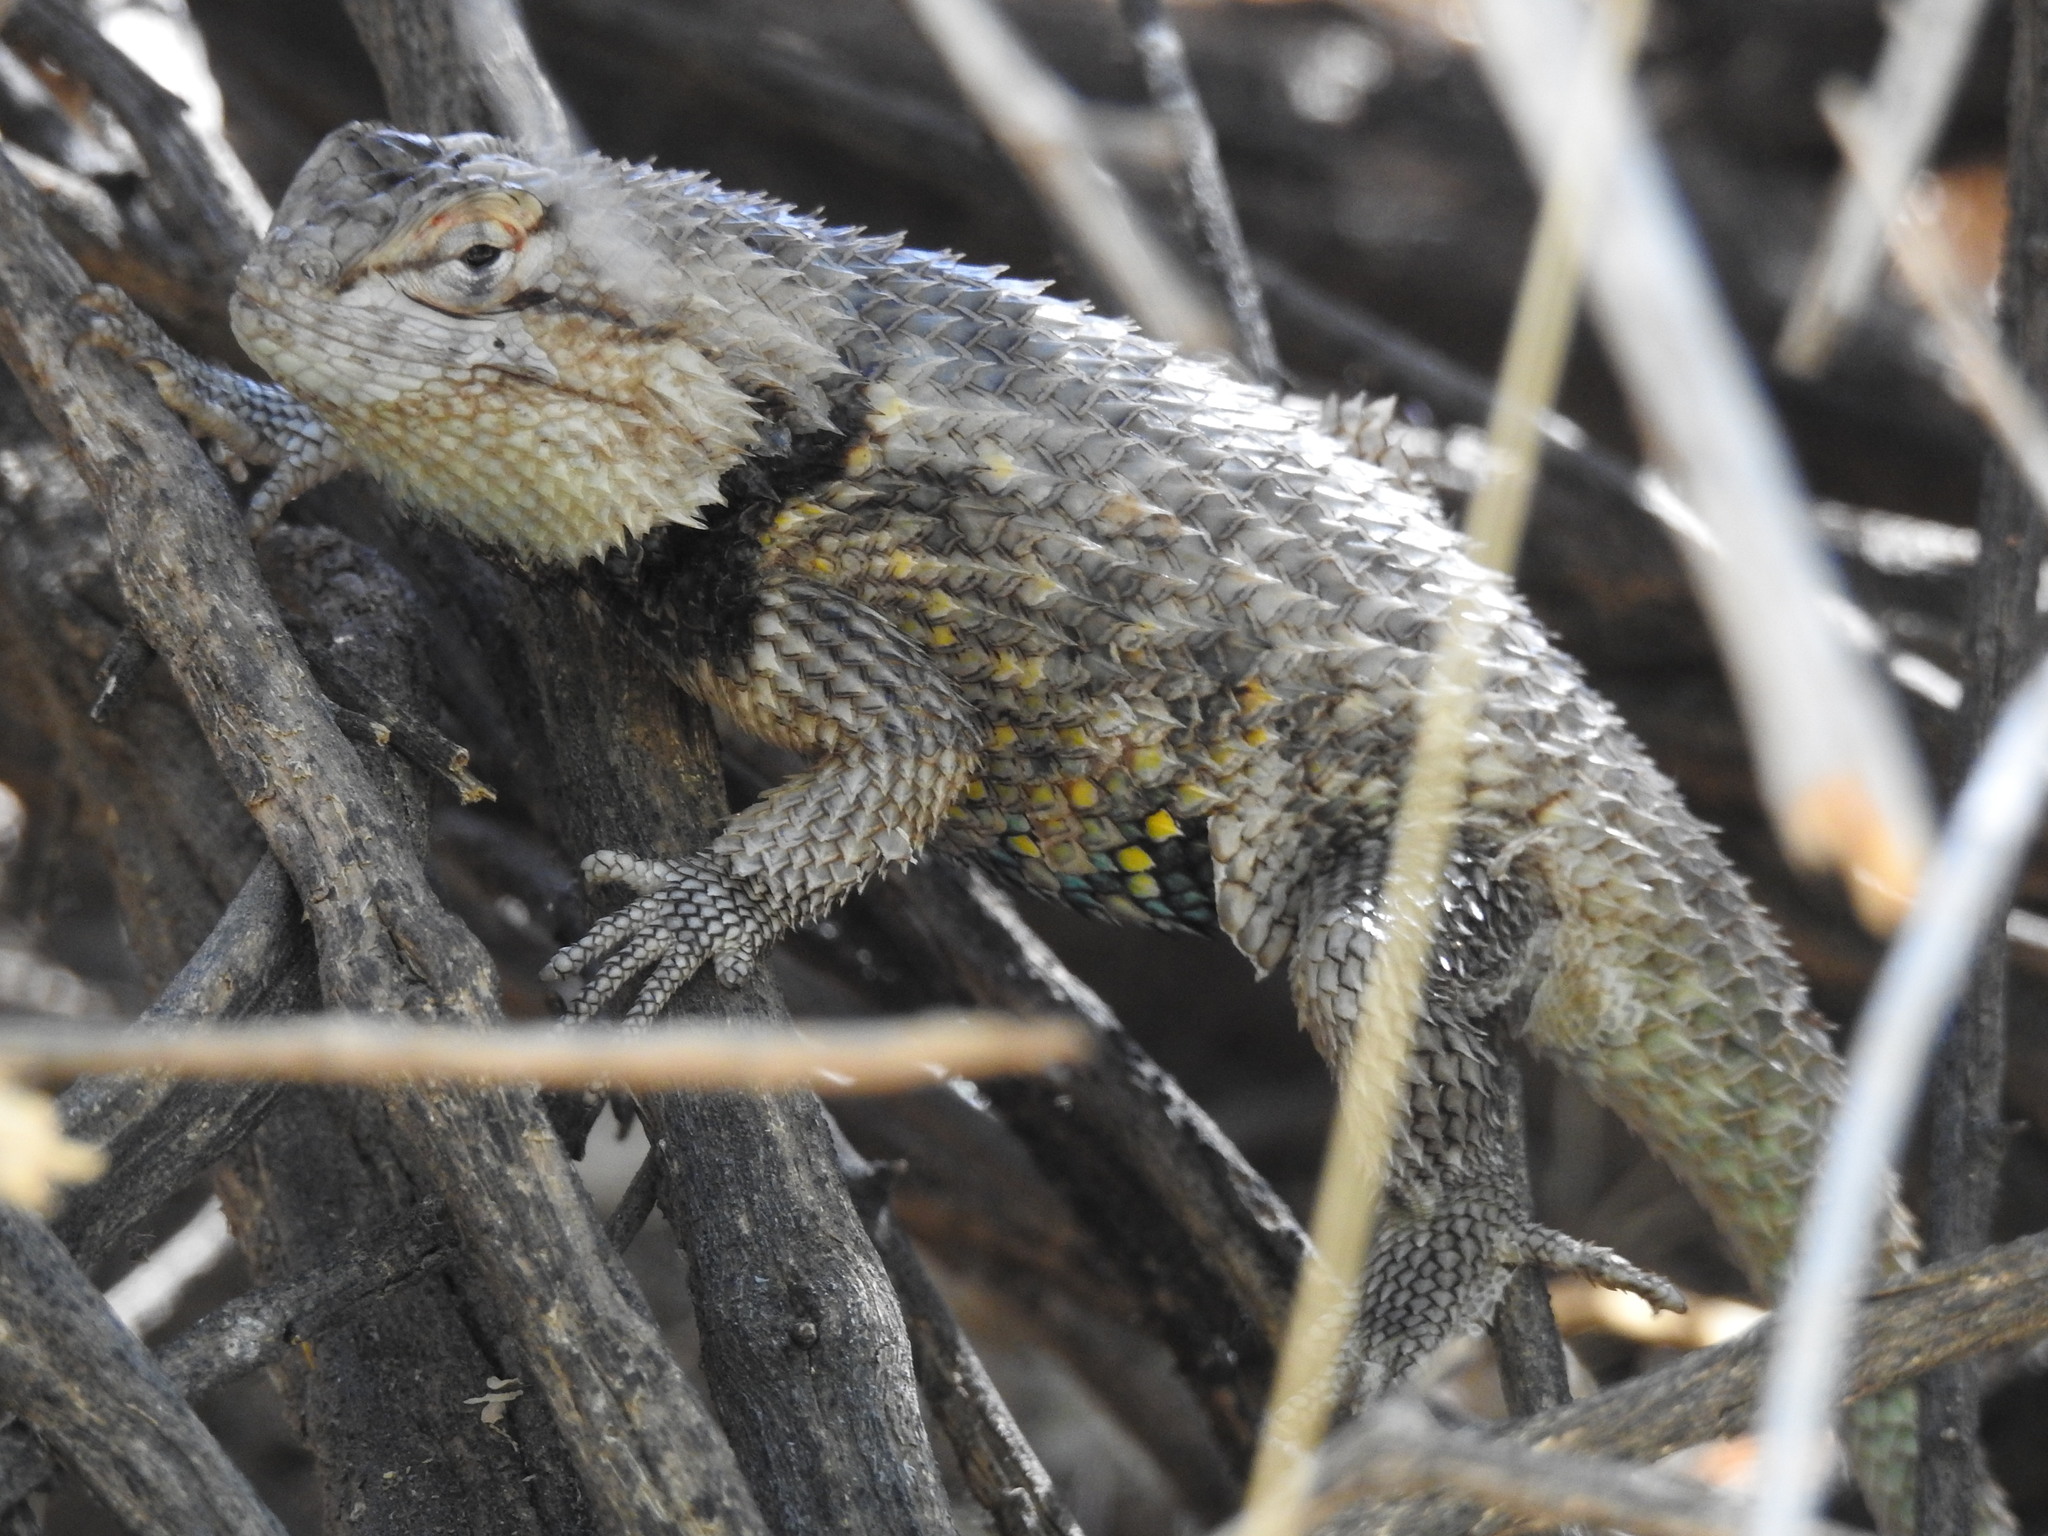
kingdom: Animalia
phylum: Chordata
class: Squamata
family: Phrynosomatidae
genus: Sceloporus
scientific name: Sceloporus magister
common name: Desert spiny lizard
